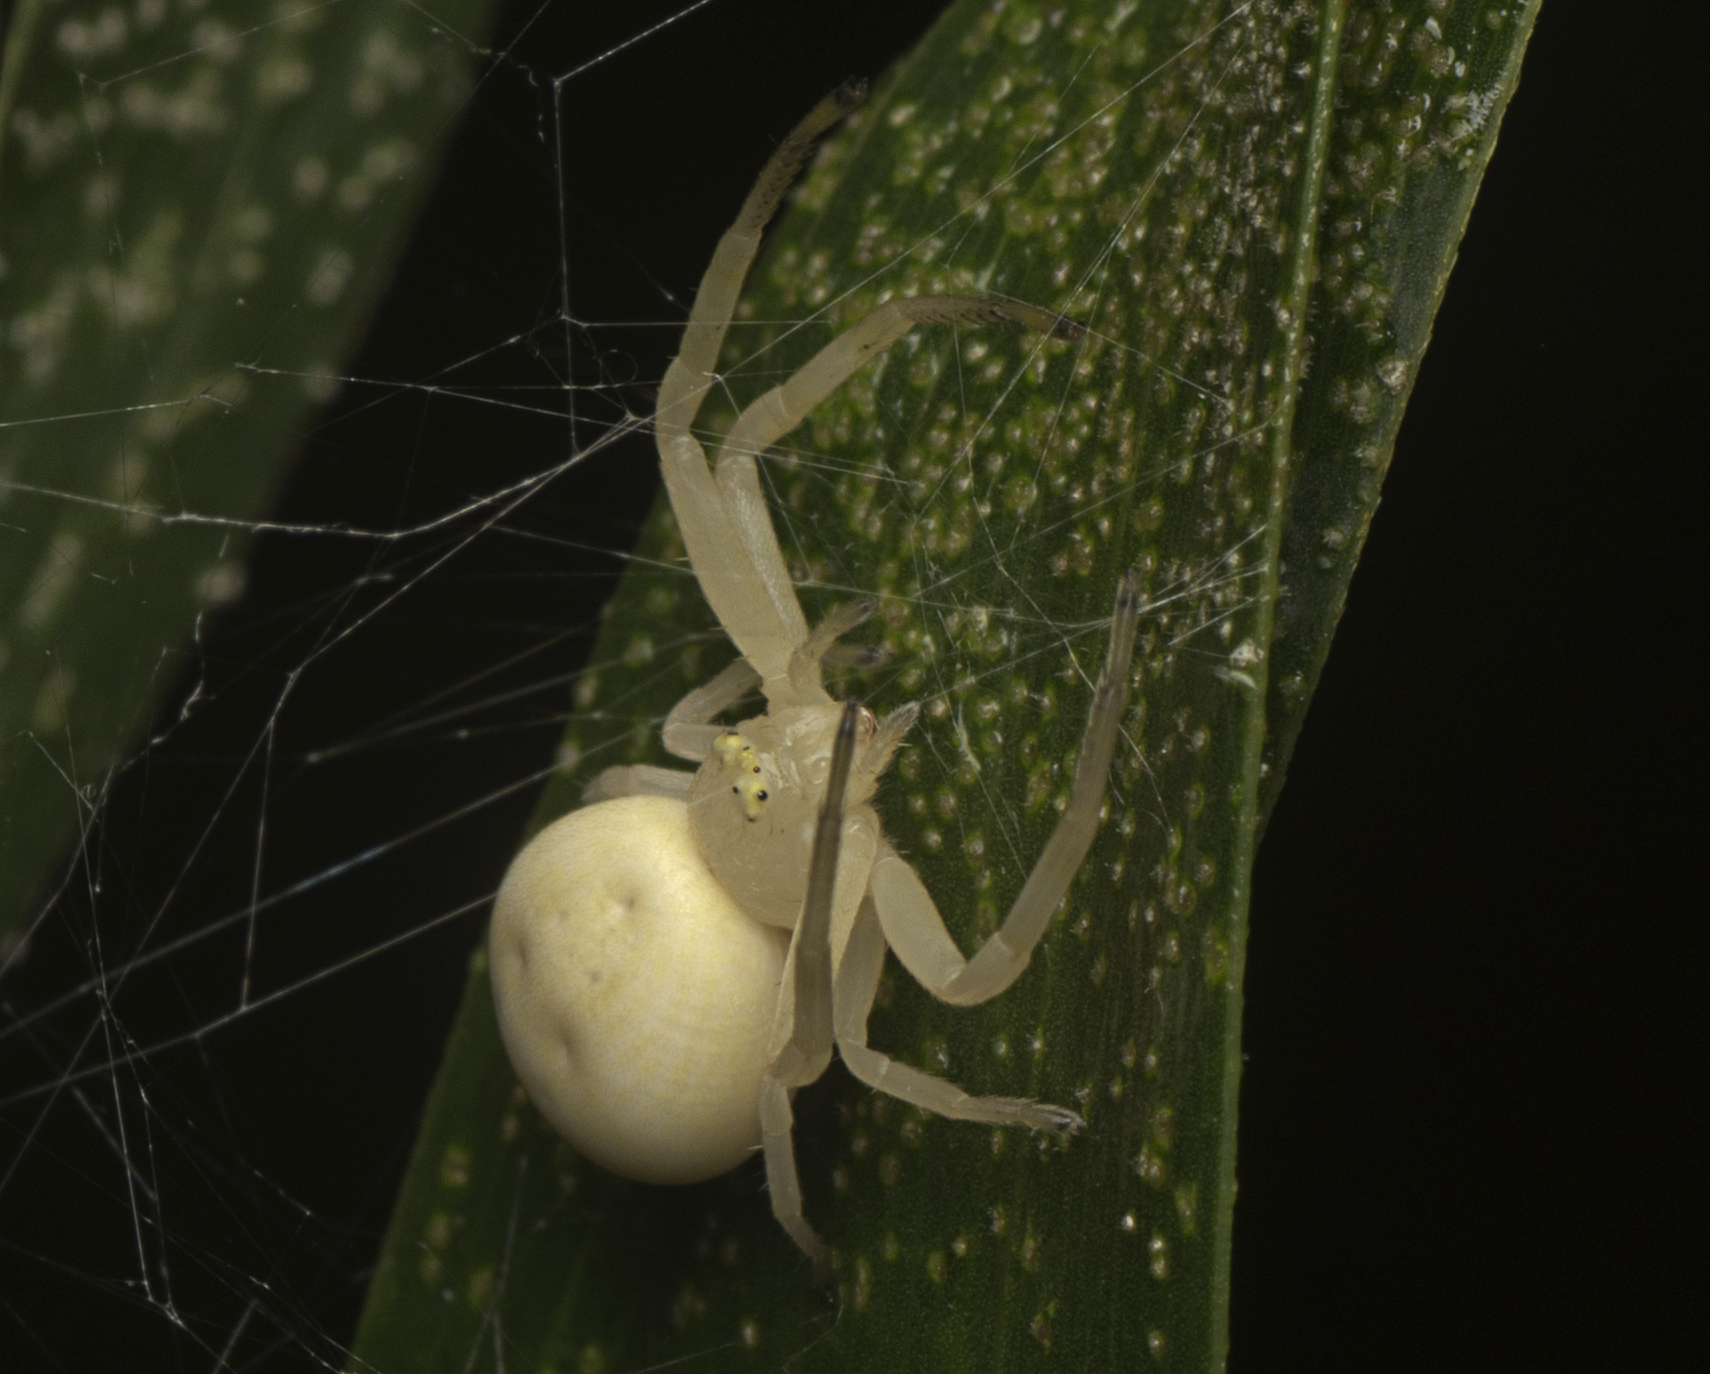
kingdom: Animalia
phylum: Arthropoda
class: Arachnida
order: Araneae
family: Thomisidae
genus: Zygometis
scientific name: Zygometis xanthogaster
